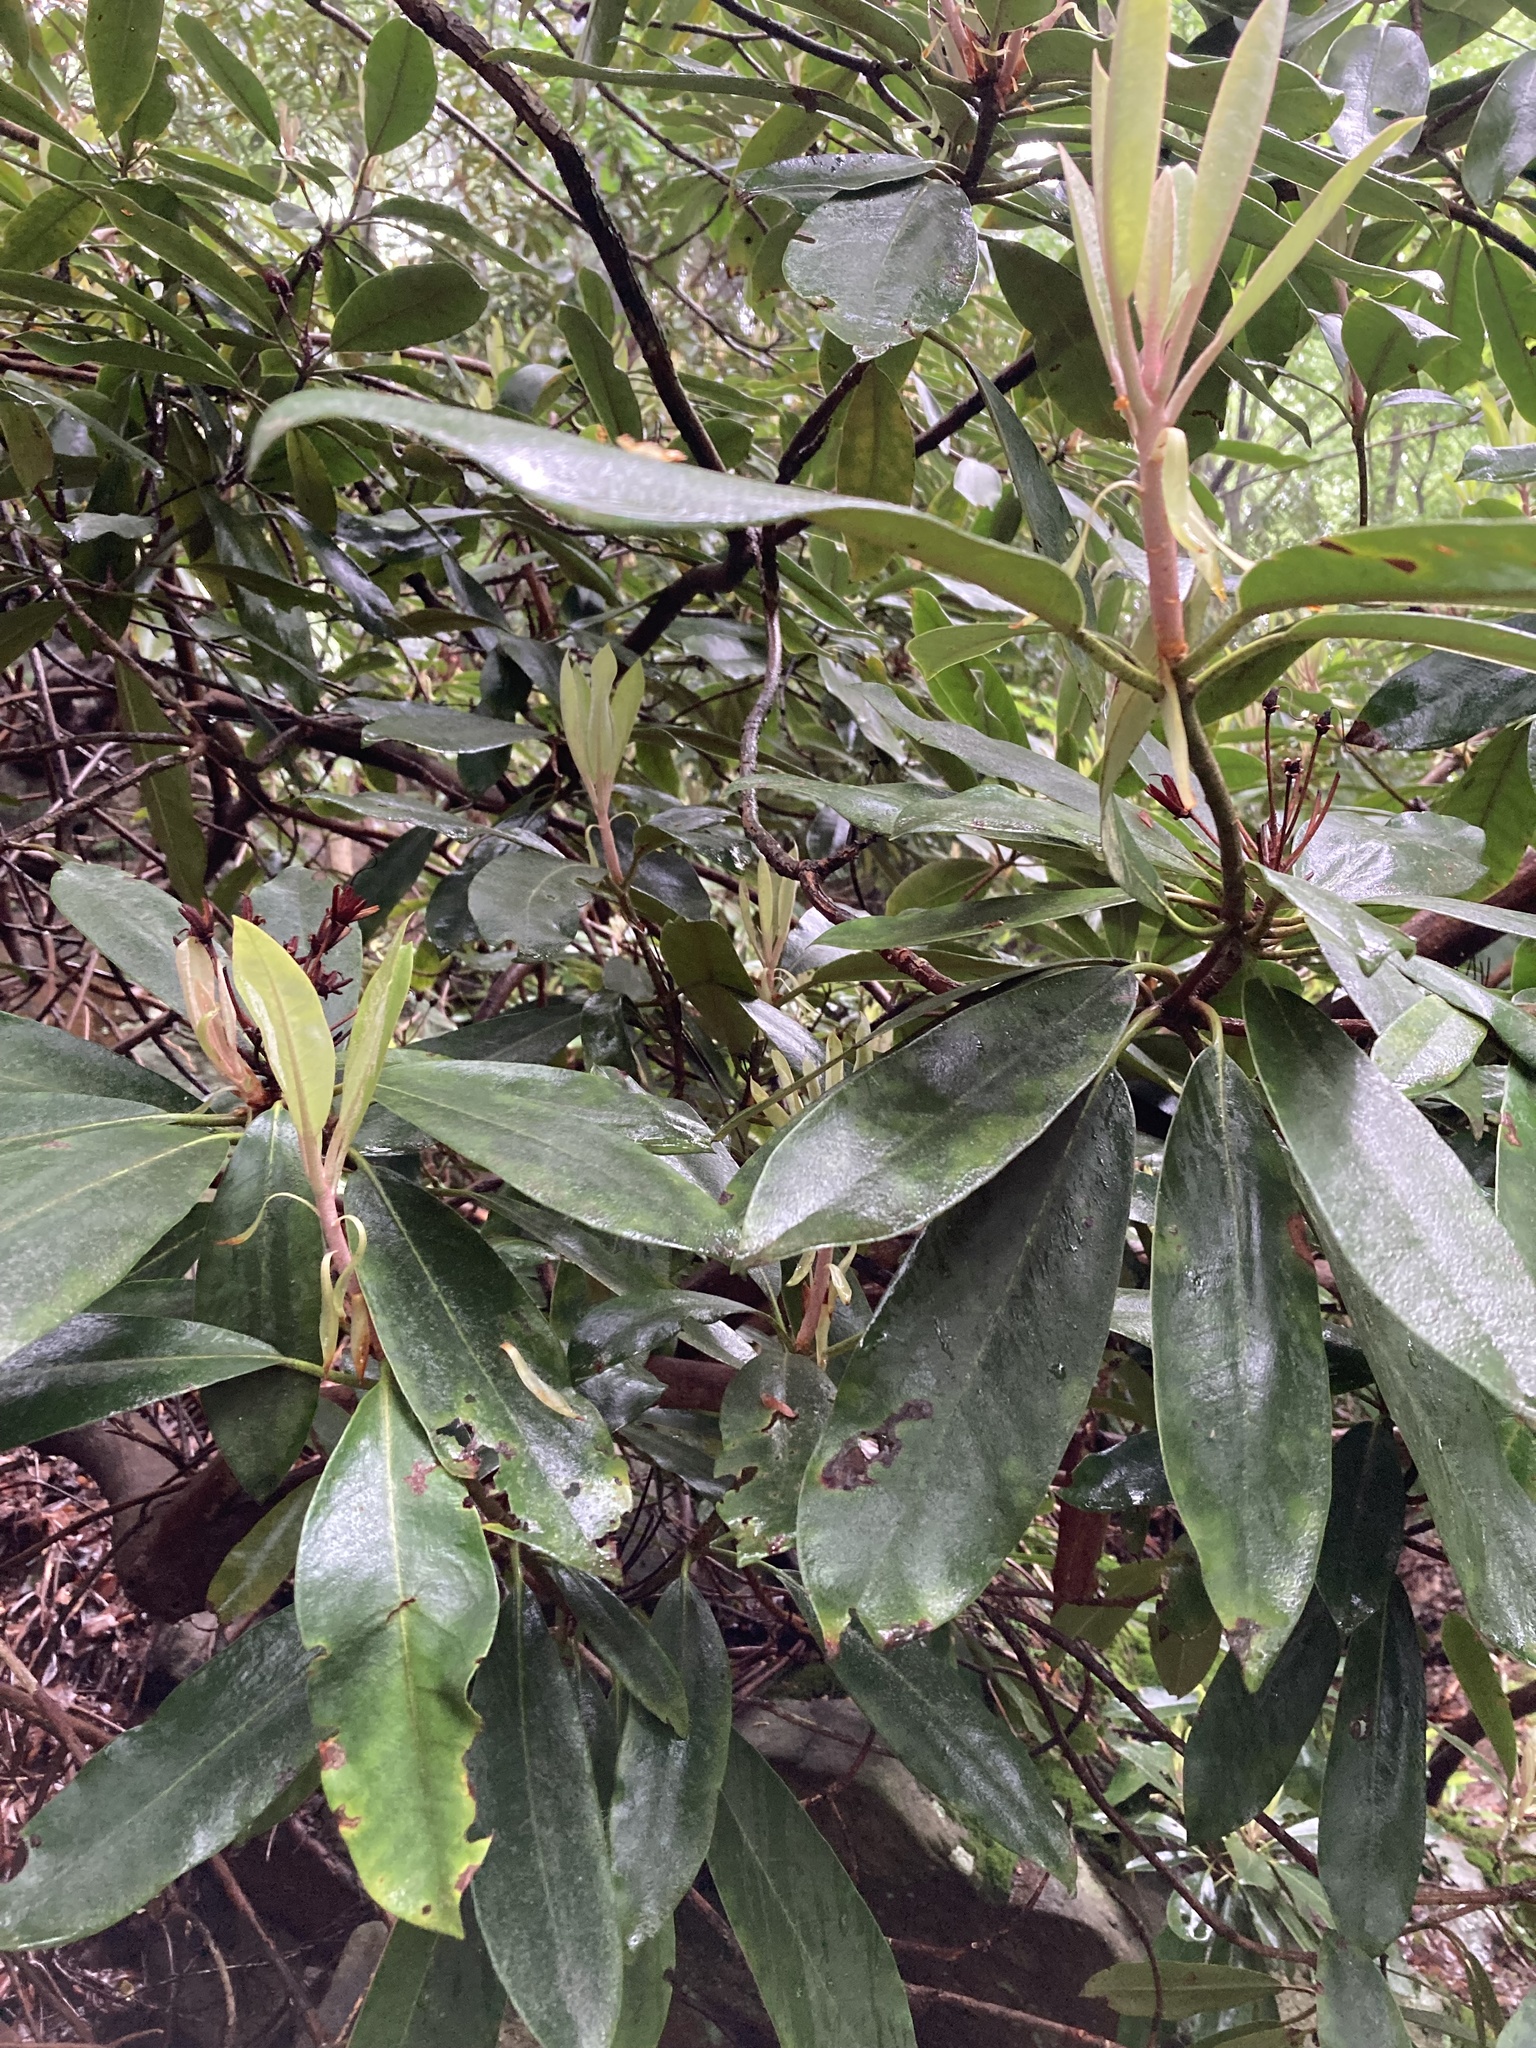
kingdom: Plantae
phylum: Tracheophyta
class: Magnoliopsida
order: Ericales
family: Ericaceae
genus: Rhododendron
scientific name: Rhododendron maximum
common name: Great rhododendron
